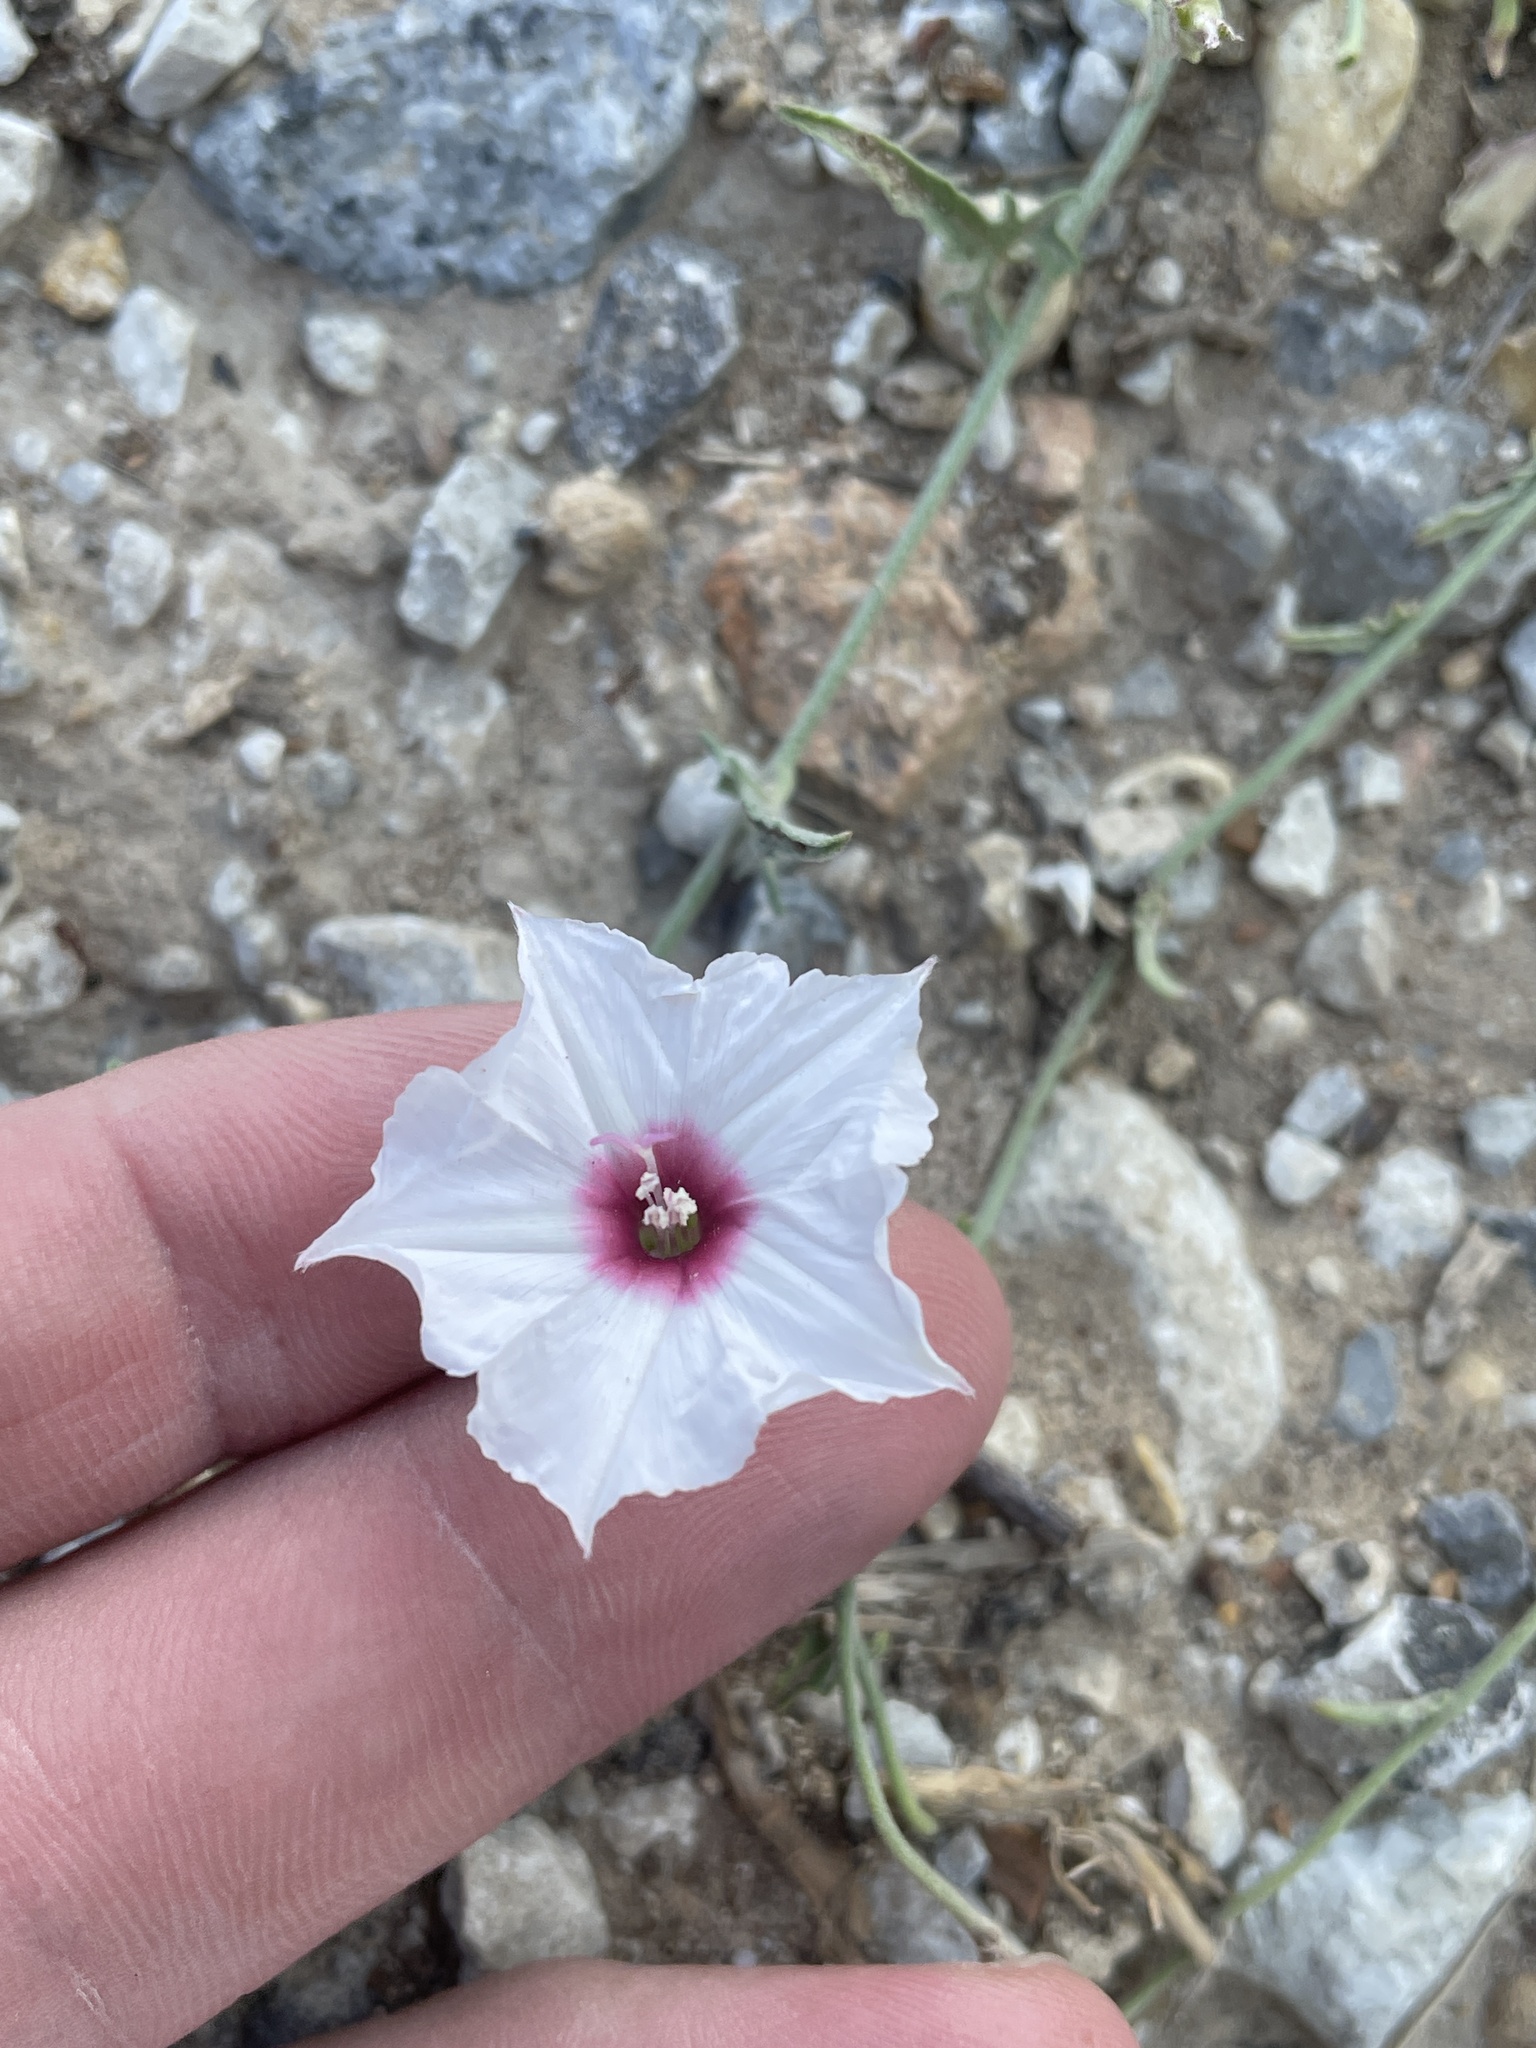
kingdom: Plantae
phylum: Tracheophyta
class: Magnoliopsida
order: Solanales
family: Convolvulaceae
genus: Convolvulus
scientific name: Convolvulus equitans
